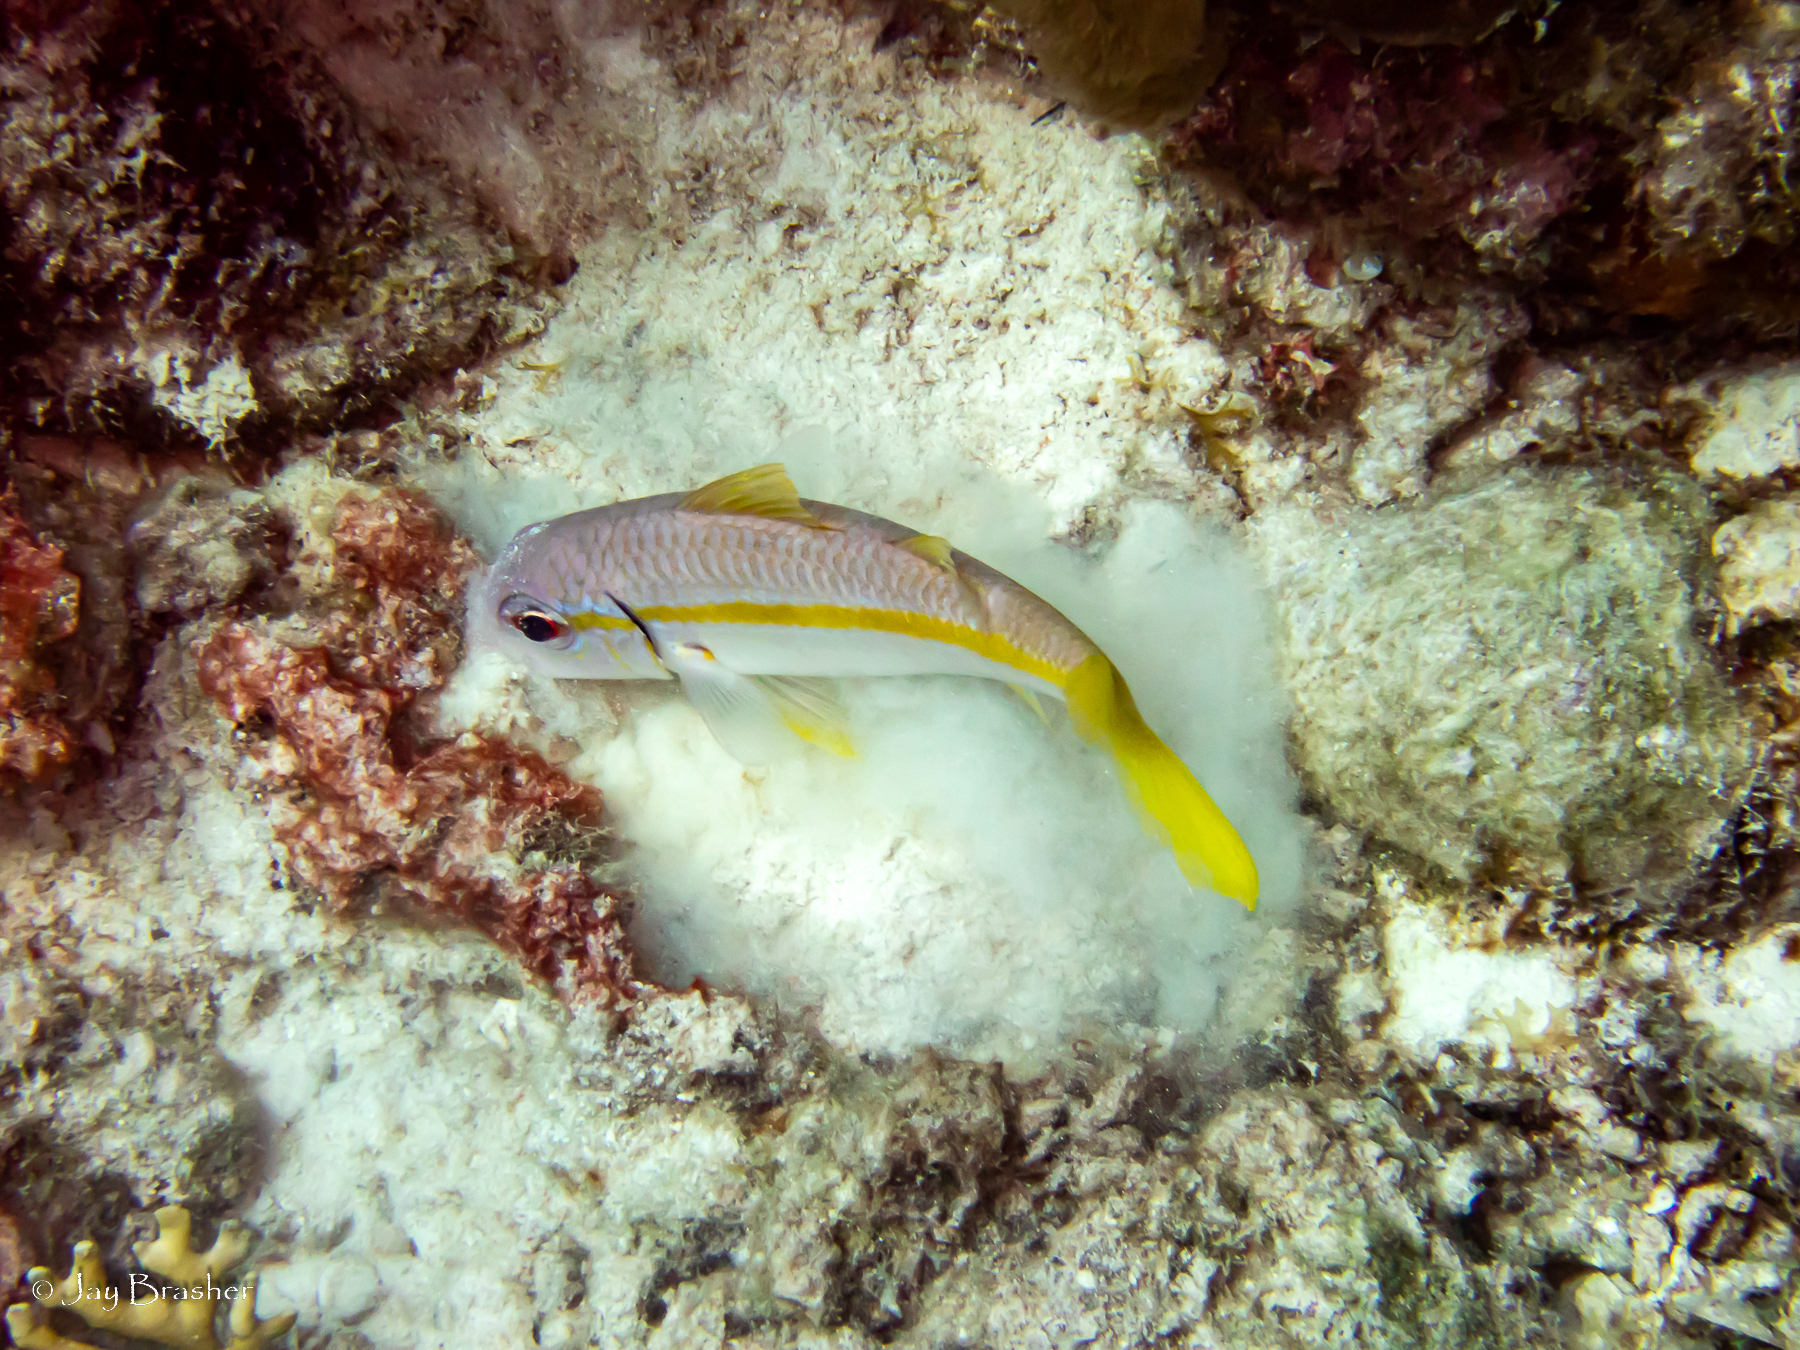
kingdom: Animalia
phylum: Chordata
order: Perciformes
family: Mullidae
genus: Mulloidichthys
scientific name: Mulloidichthys martinicus
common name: Yellow goatfish
